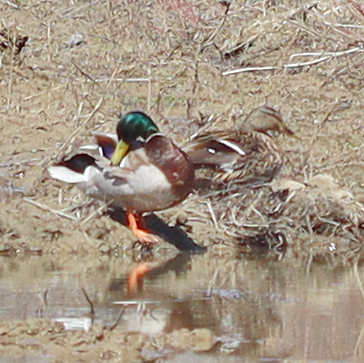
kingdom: Animalia
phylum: Chordata
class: Aves
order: Anseriformes
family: Anatidae
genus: Anas
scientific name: Anas platyrhynchos
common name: Mallard
